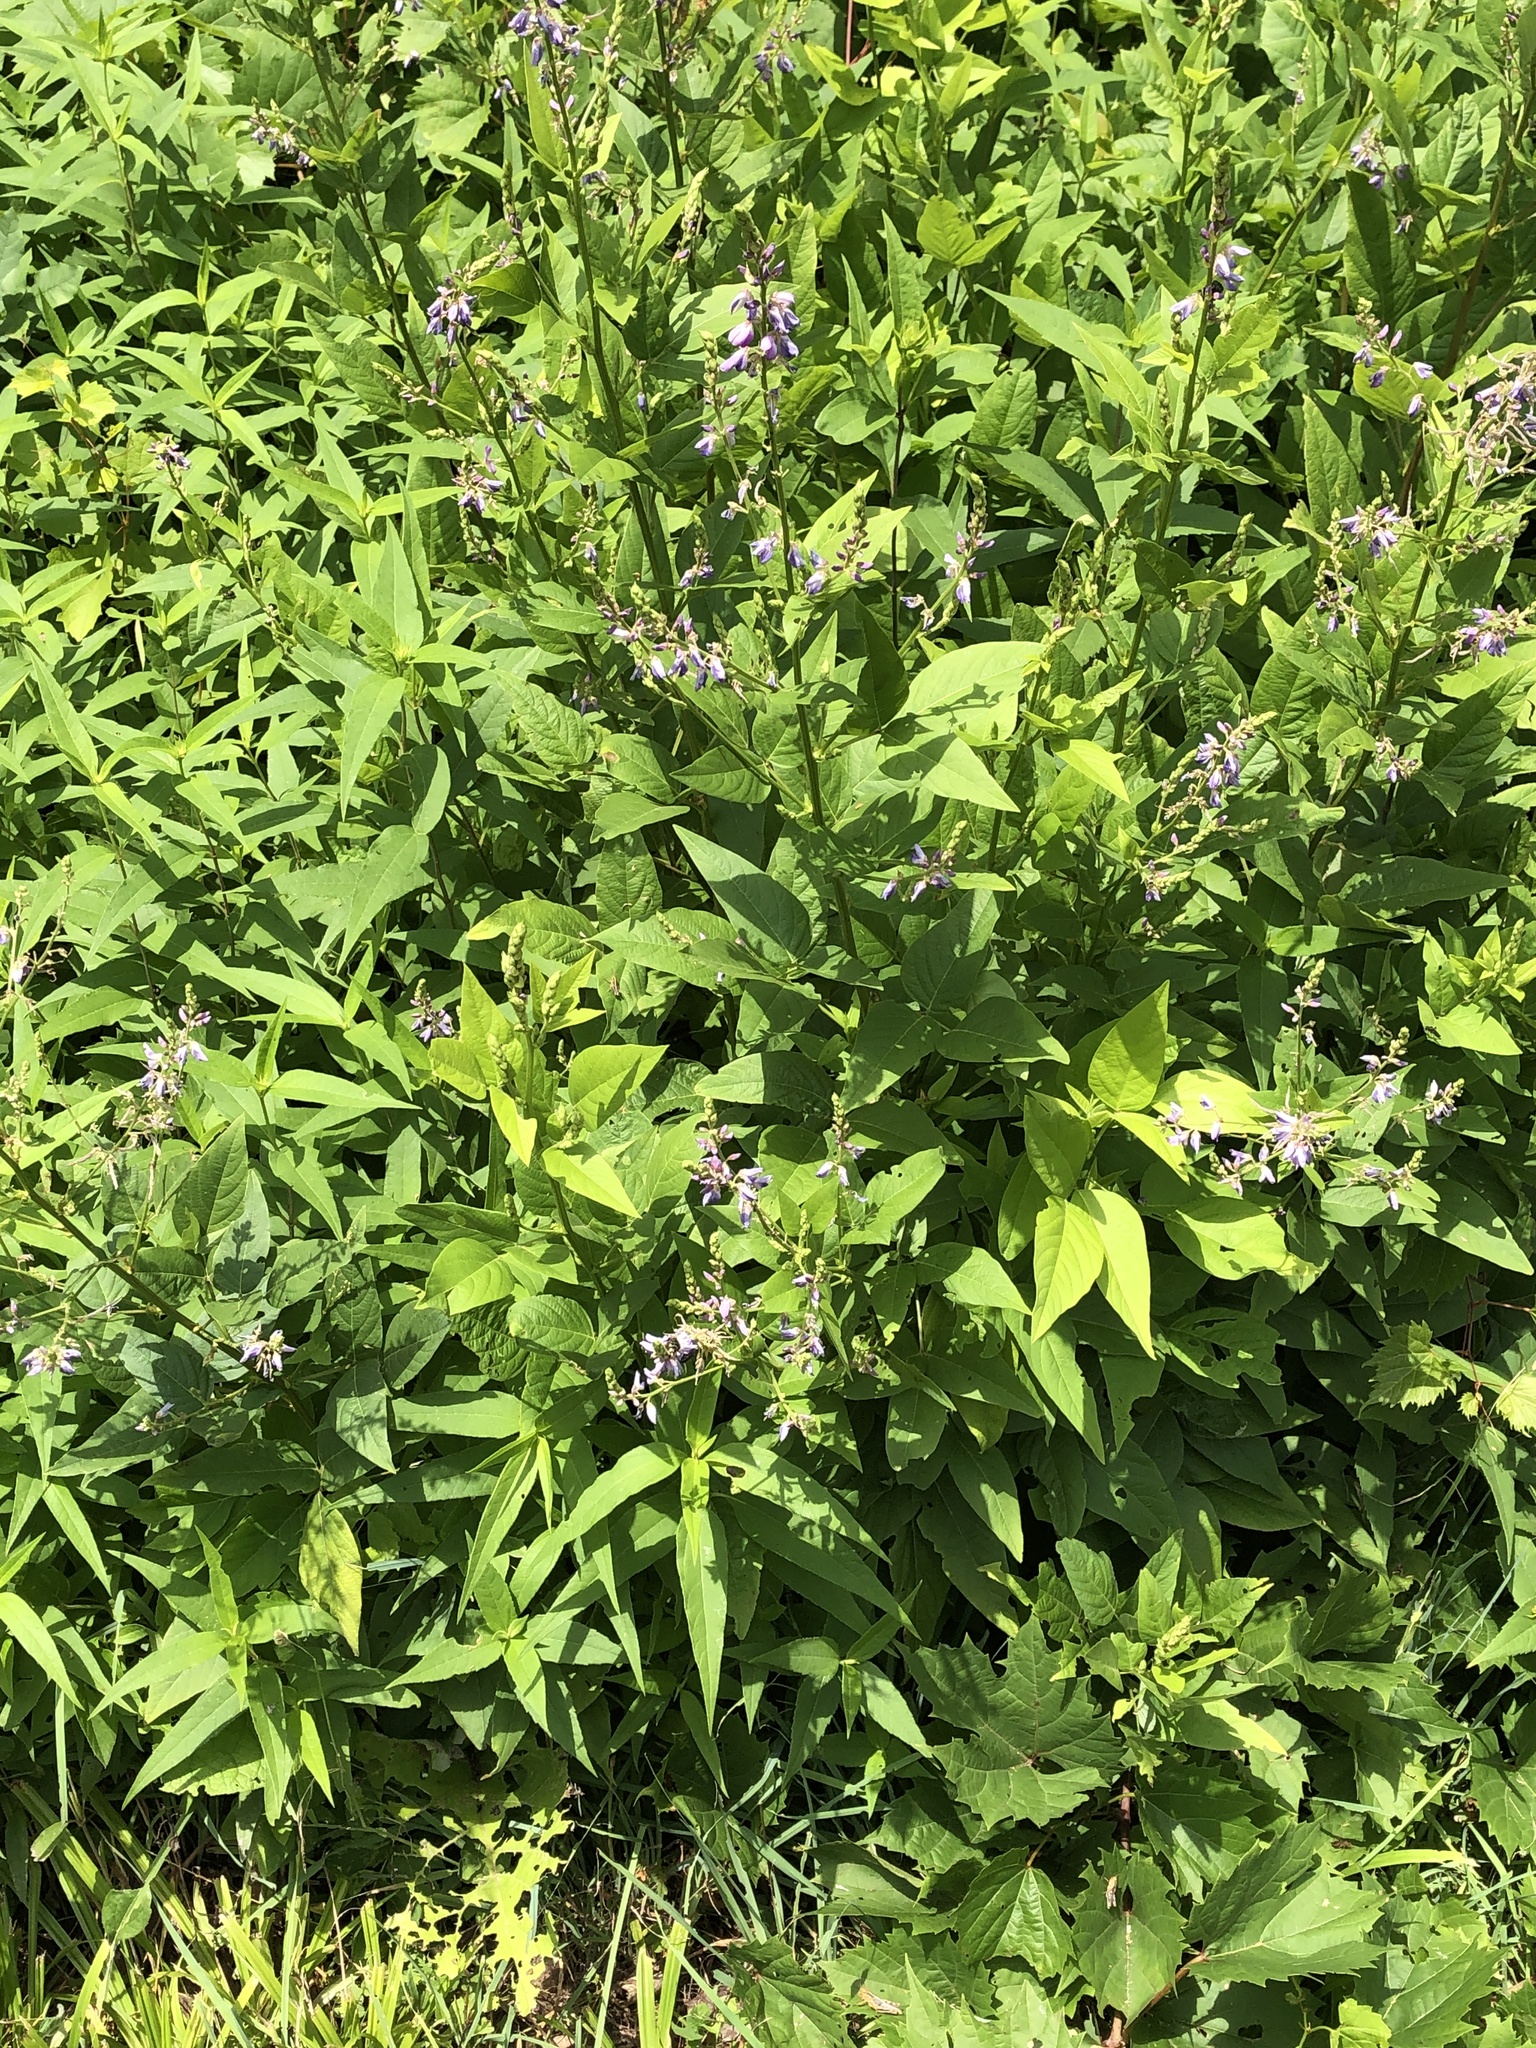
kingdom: Plantae
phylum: Tracheophyta
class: Magnoliopsida
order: Fabales
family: Fabaceae
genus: Desmodium
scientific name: Desmodium cuspidatum
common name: Big tick trefoil
